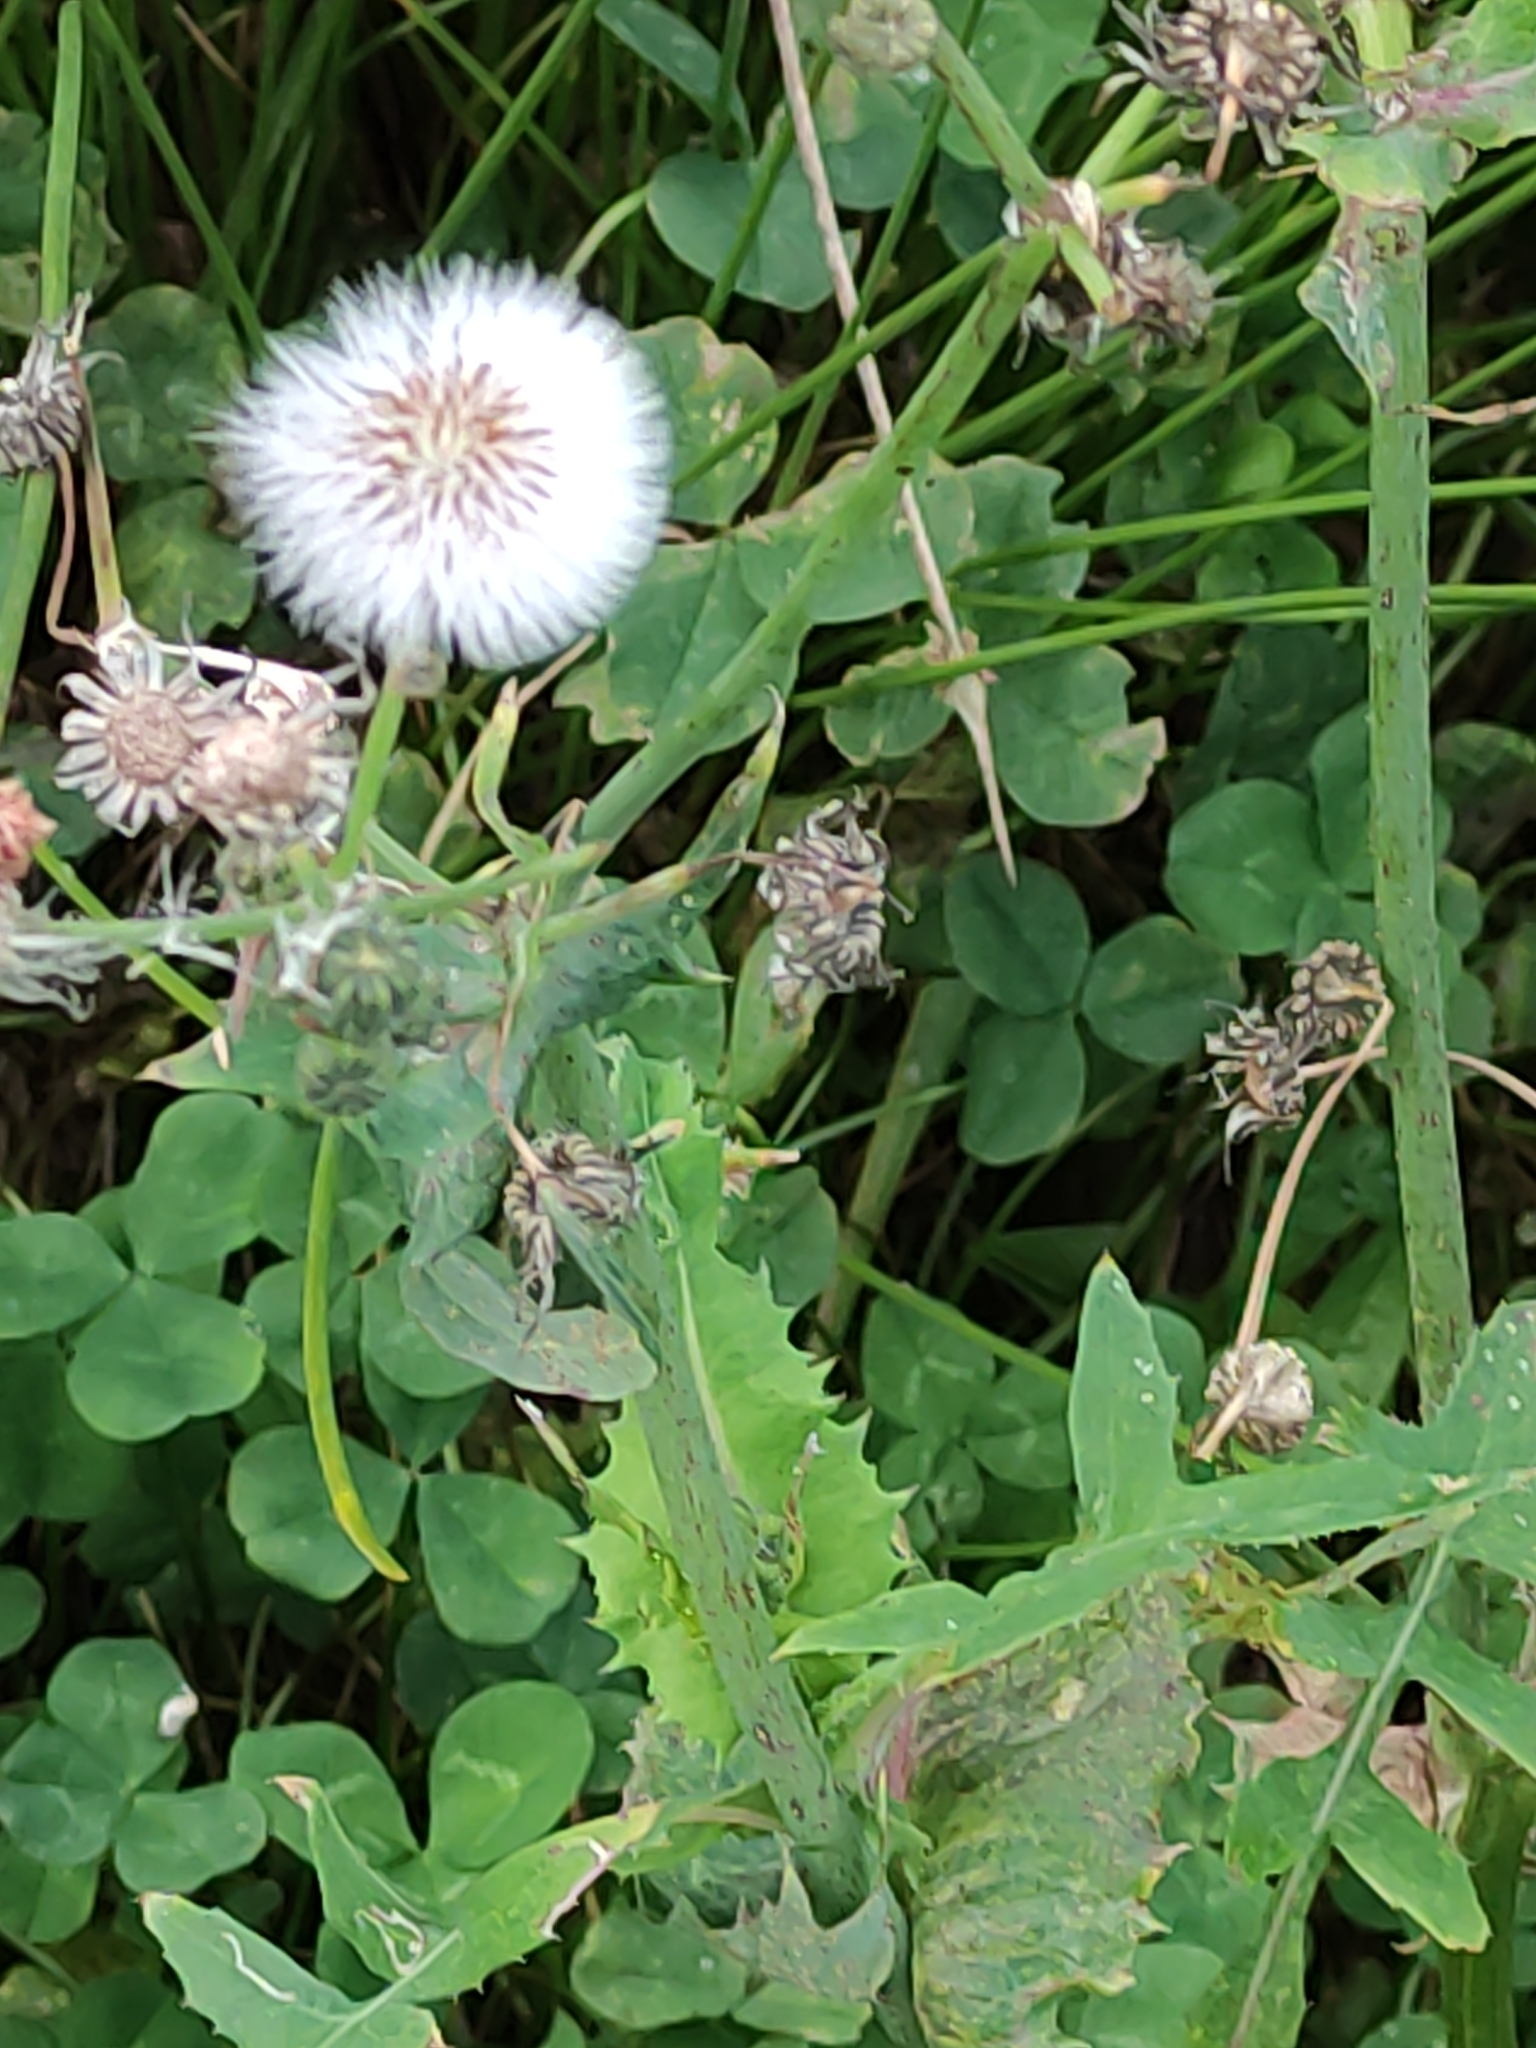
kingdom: Plantae
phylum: Tracheophyta
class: Magnoliopsida
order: Asterales
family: Asteraceae
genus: Sonchus
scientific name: Sonchus oleraceus
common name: Common sowthistle
